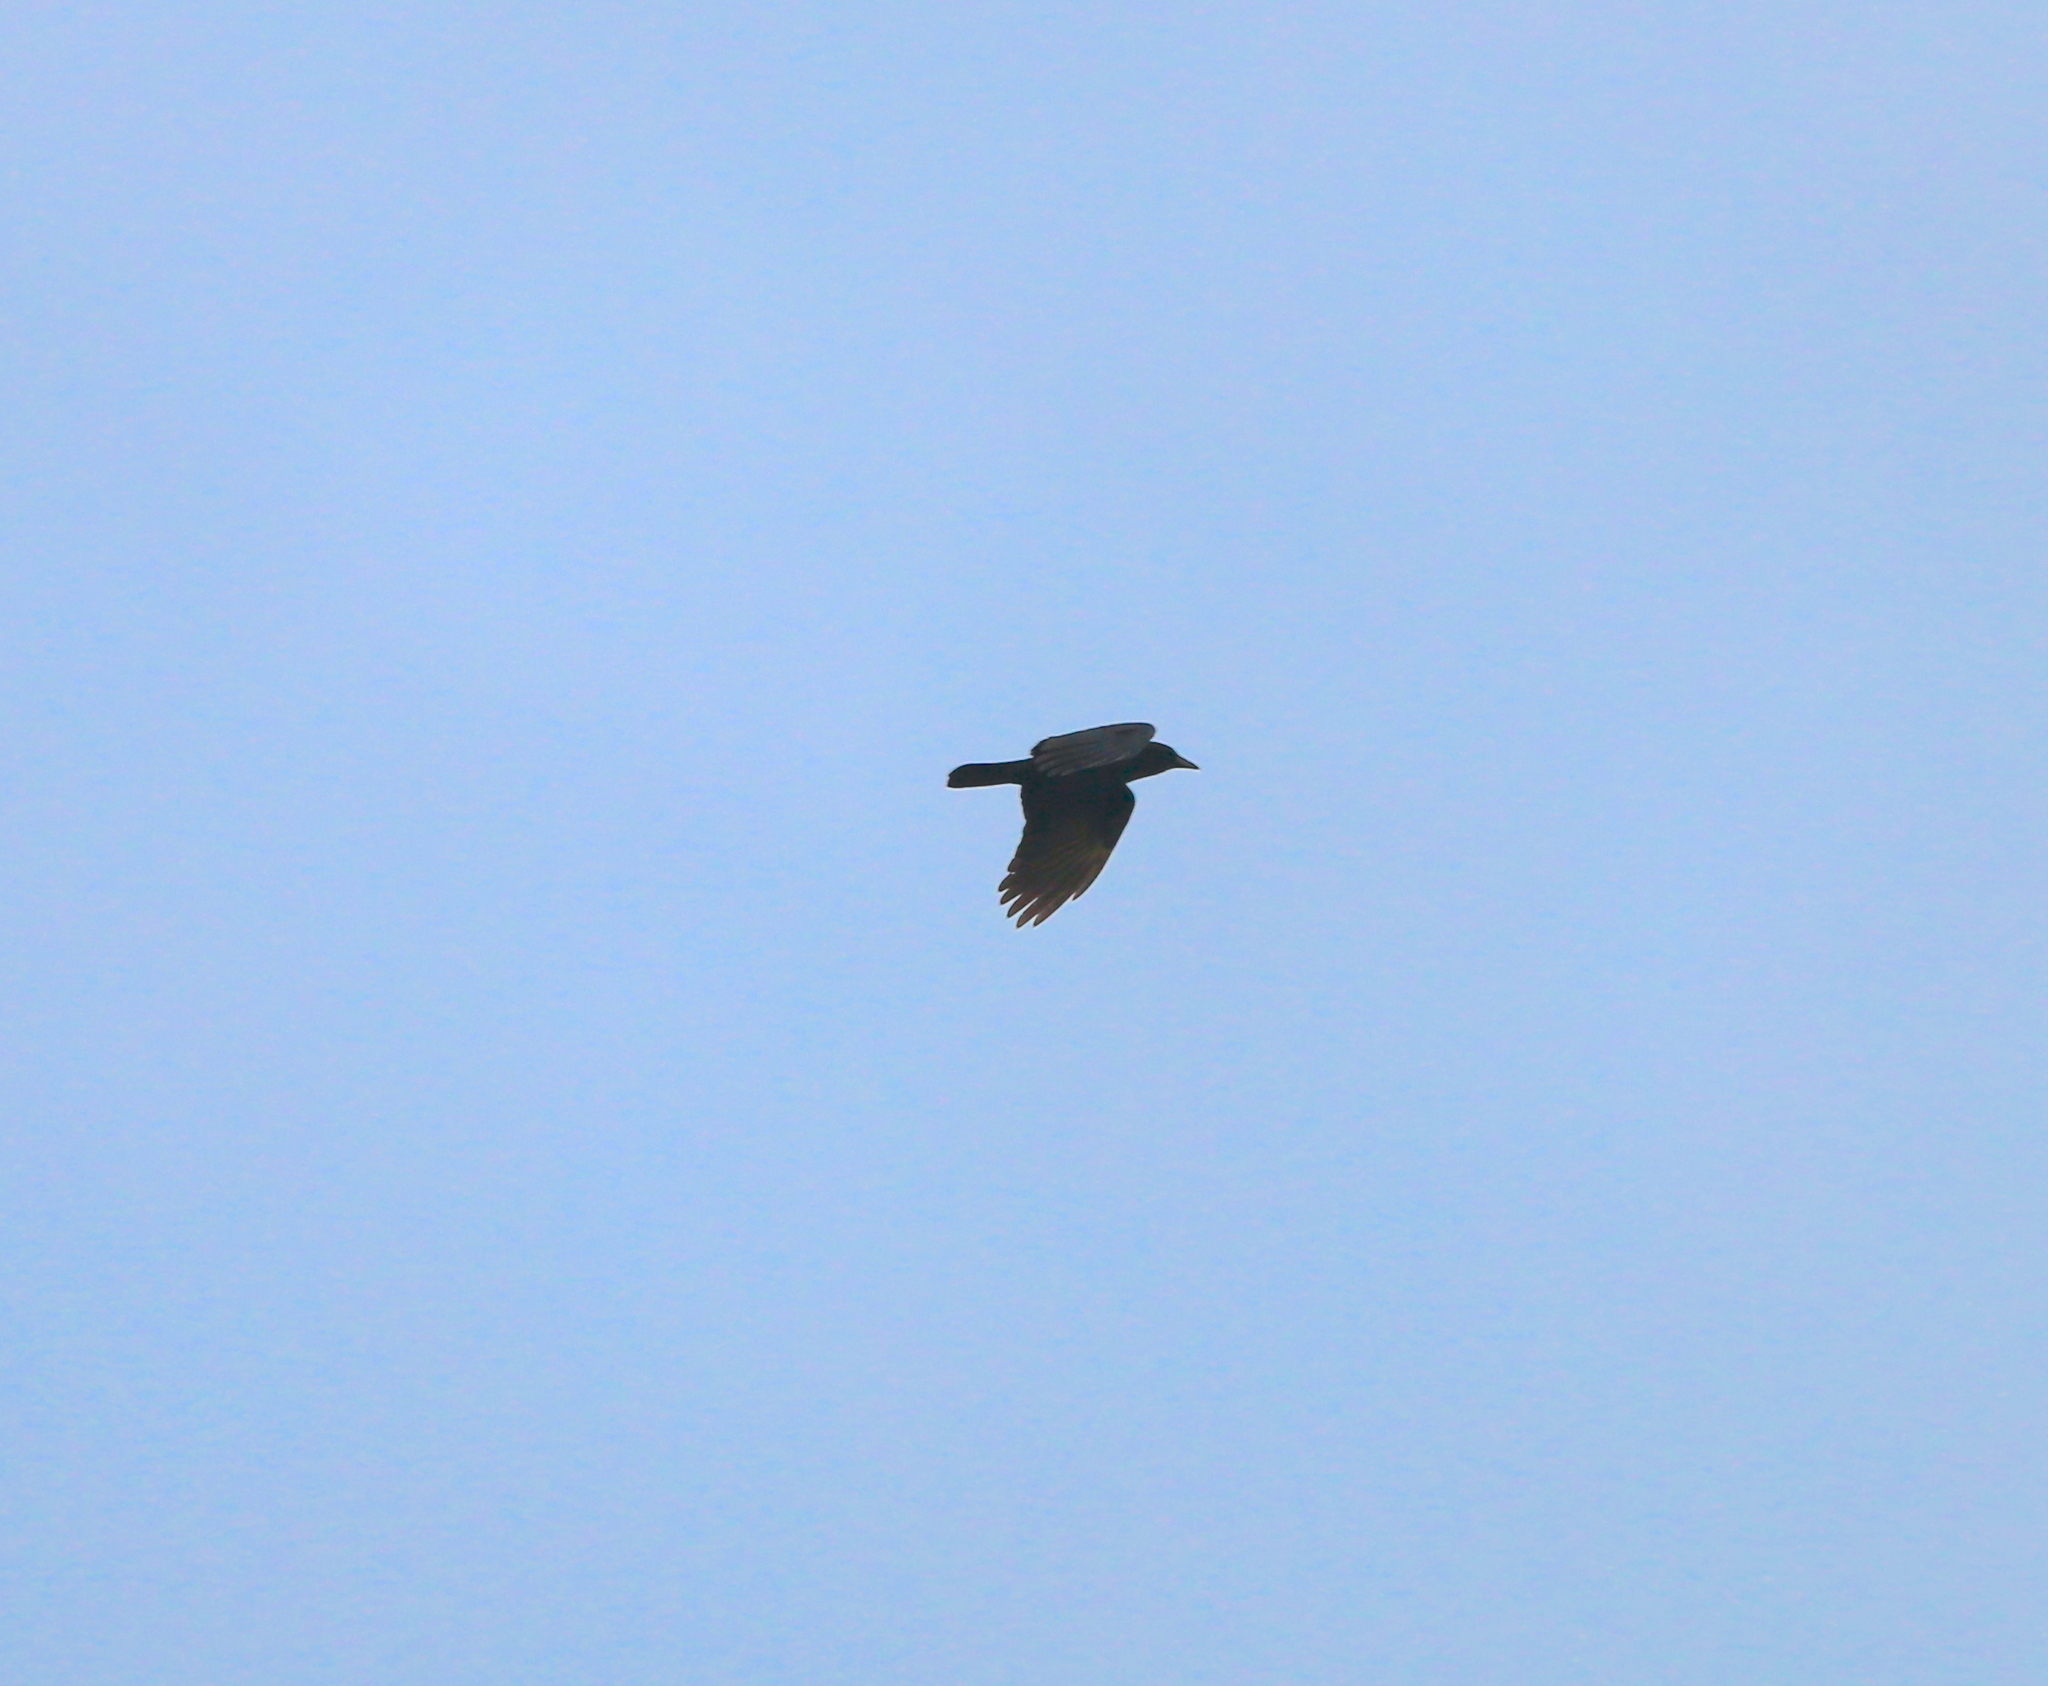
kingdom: Animalia
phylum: Chordata
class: Aves
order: Passeriformes
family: Corvidae
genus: Corvus
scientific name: Corvus
